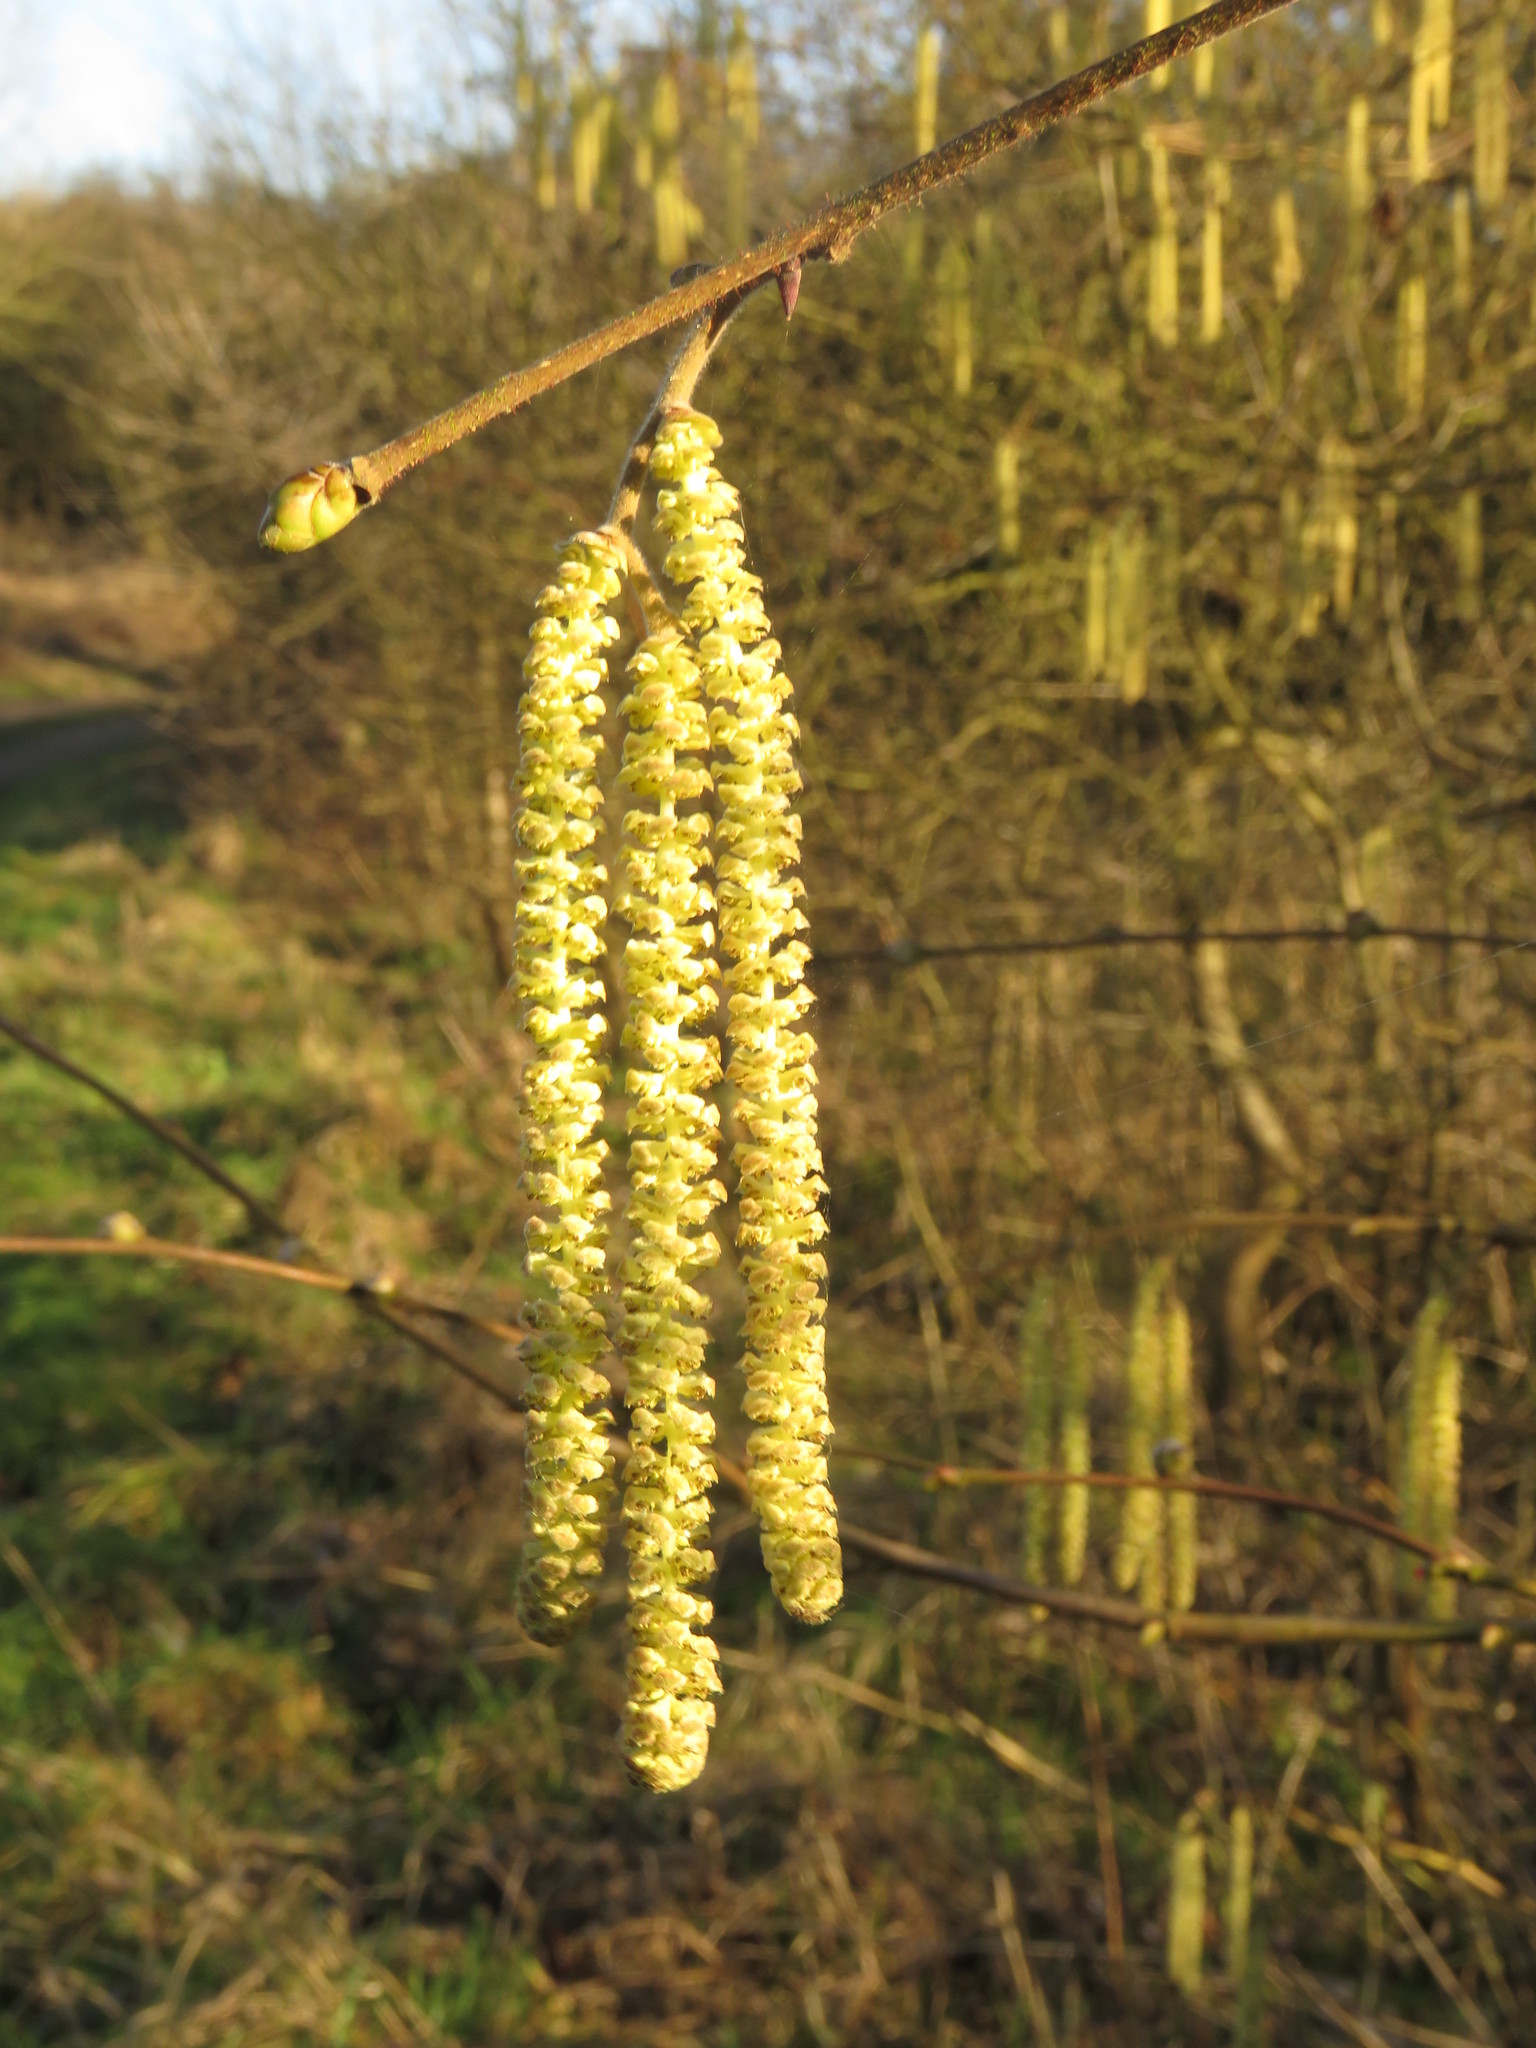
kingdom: Plantae
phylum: Tracheophyta
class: Magnoliopsida
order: Fagales
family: Betulaceae
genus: Corylus
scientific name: Corylus avellana
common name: European hazel
